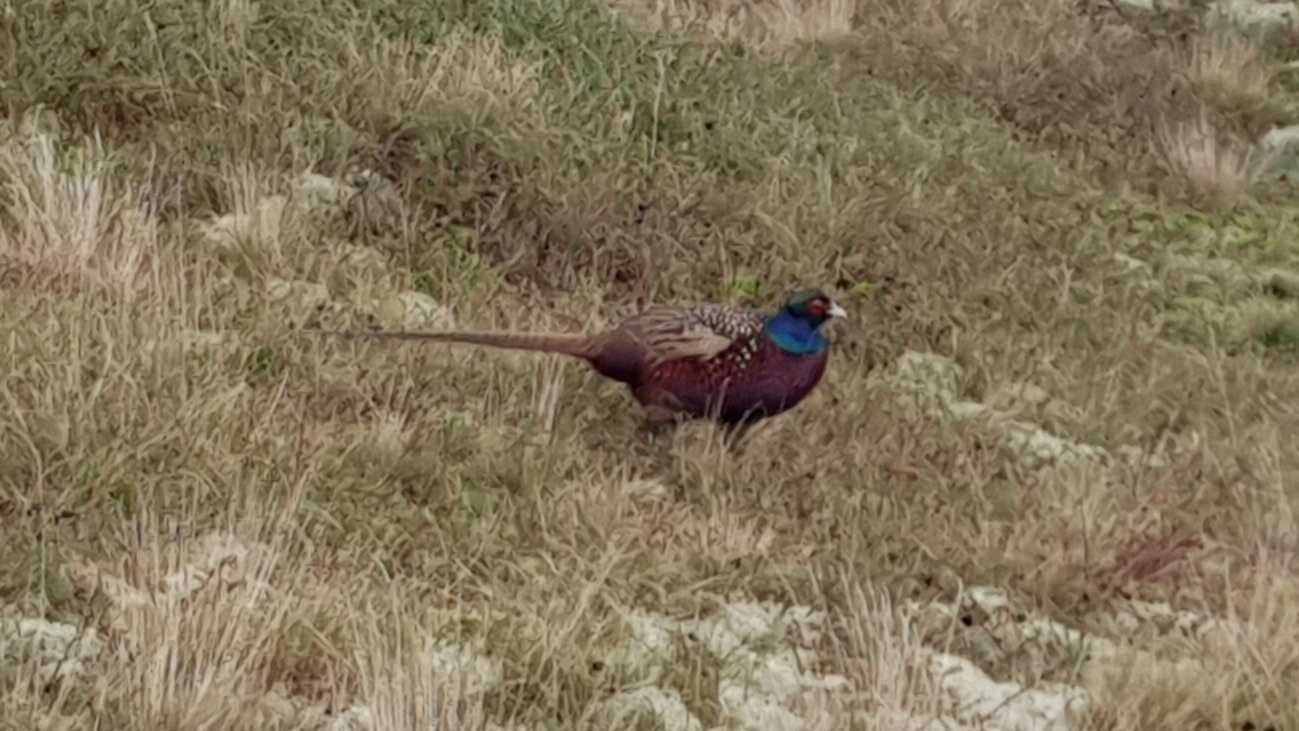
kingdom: Animalia
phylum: Chordata
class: Aves
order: Galliformes
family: Phasianidae
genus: Phasianus
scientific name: Phasianus colchicus
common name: Common pheasant
